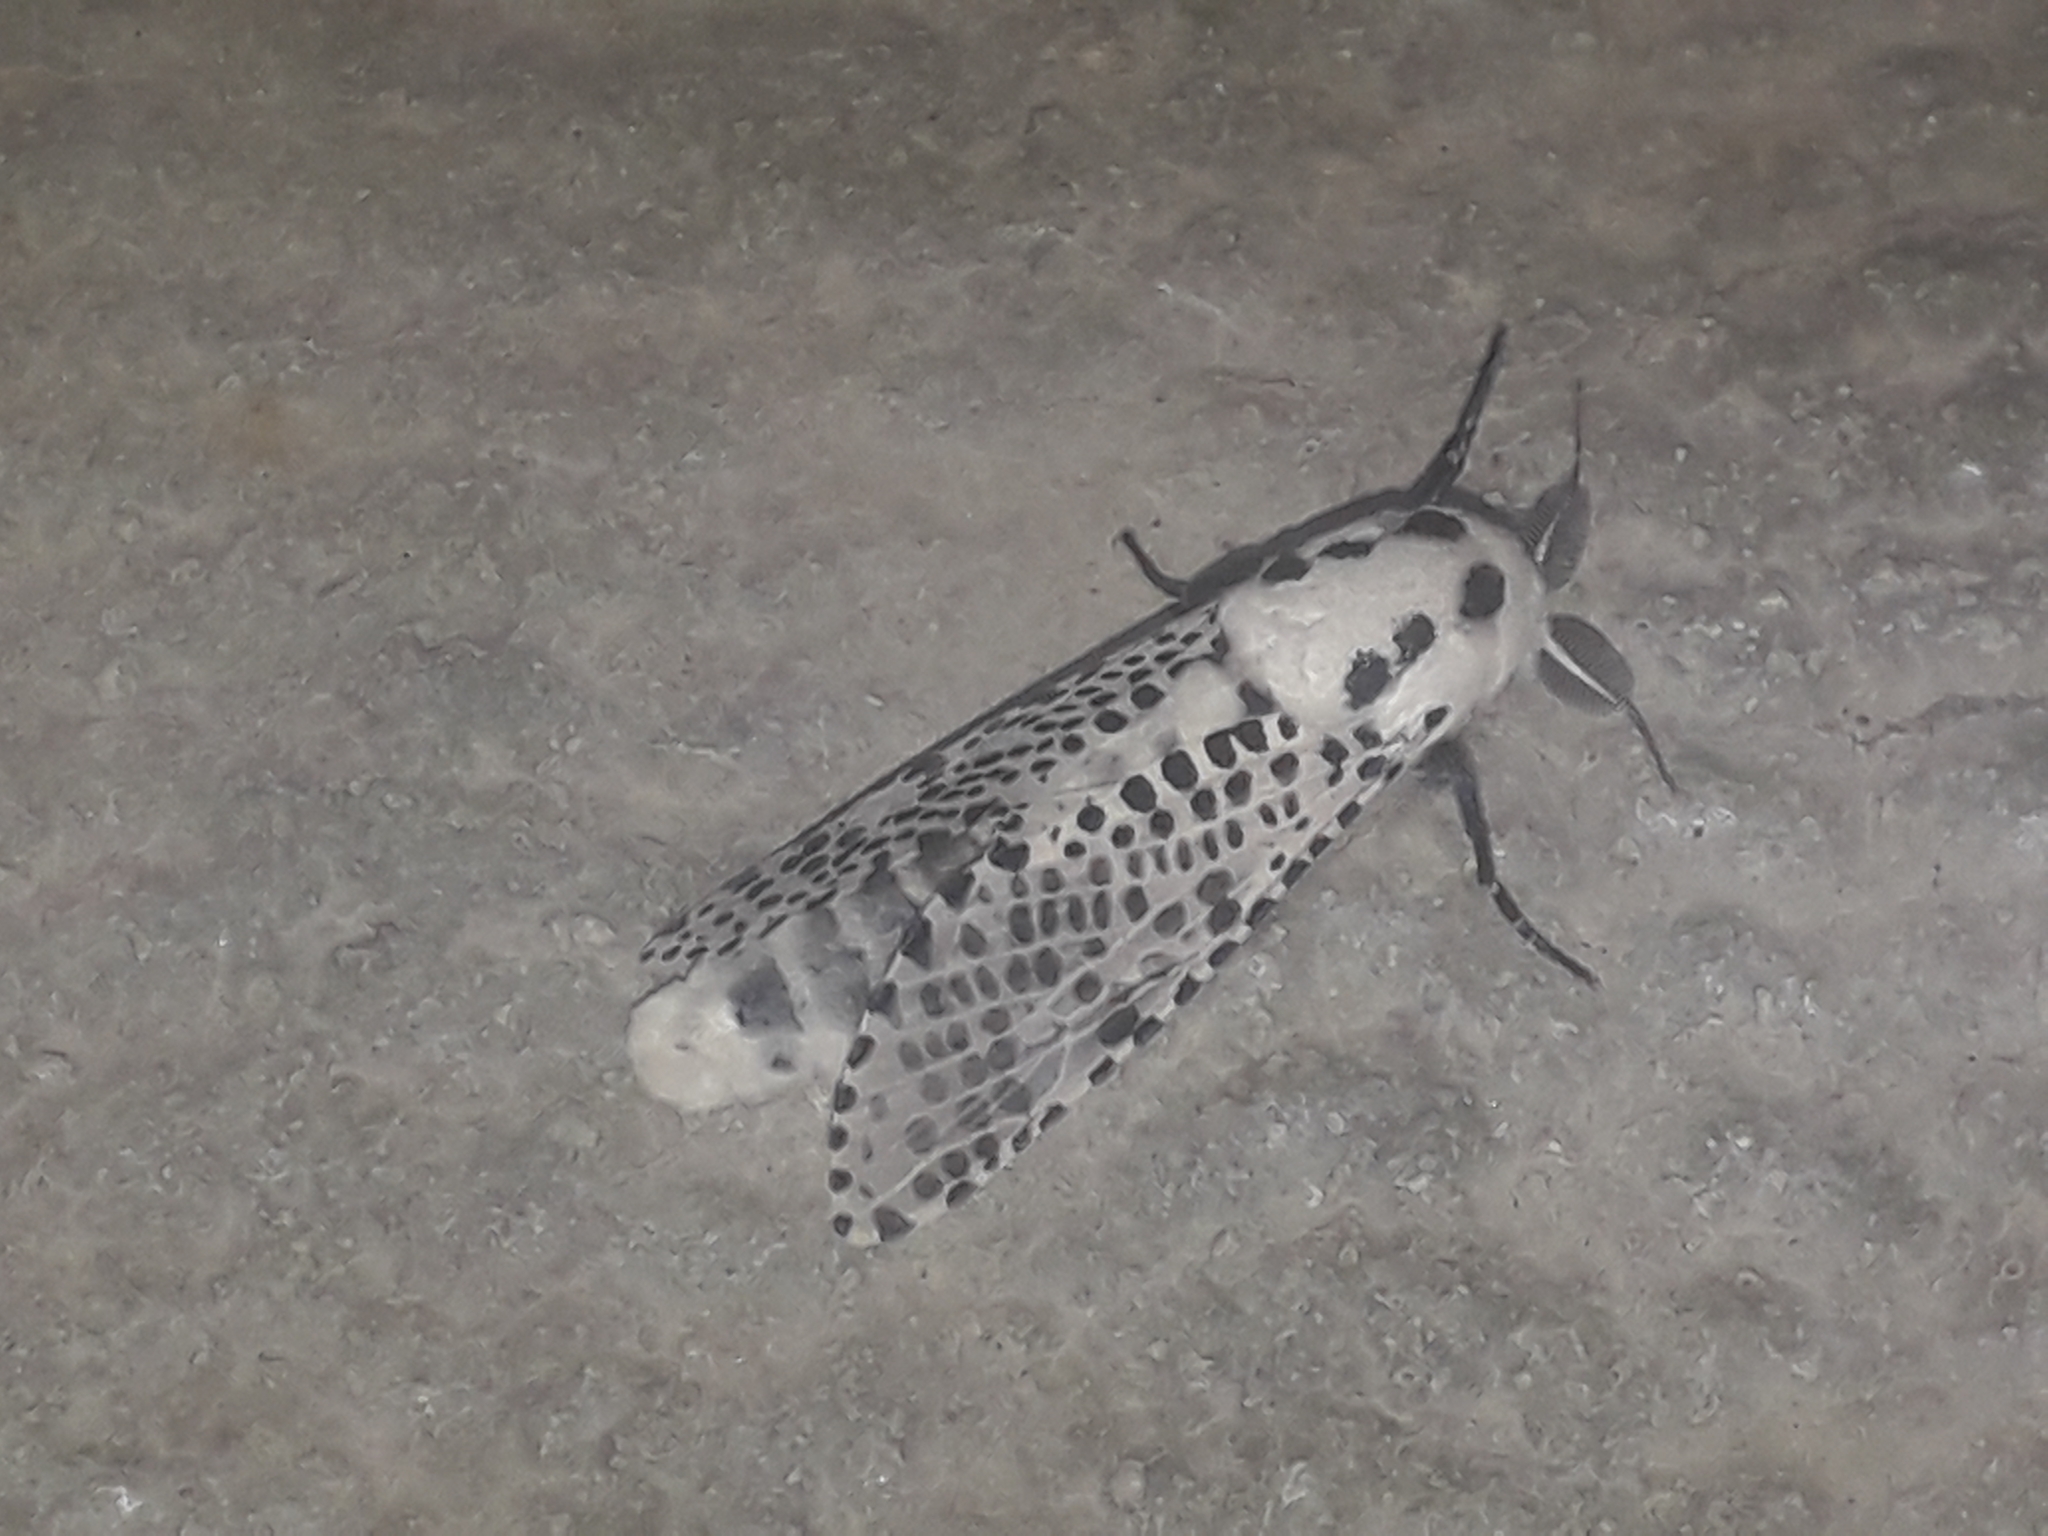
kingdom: Animalia
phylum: Arthropoda
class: Insecta
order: Lepidoptera
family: Cossidae
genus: Zeuzera
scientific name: Zeuzera pyrina
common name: Leopard moth
